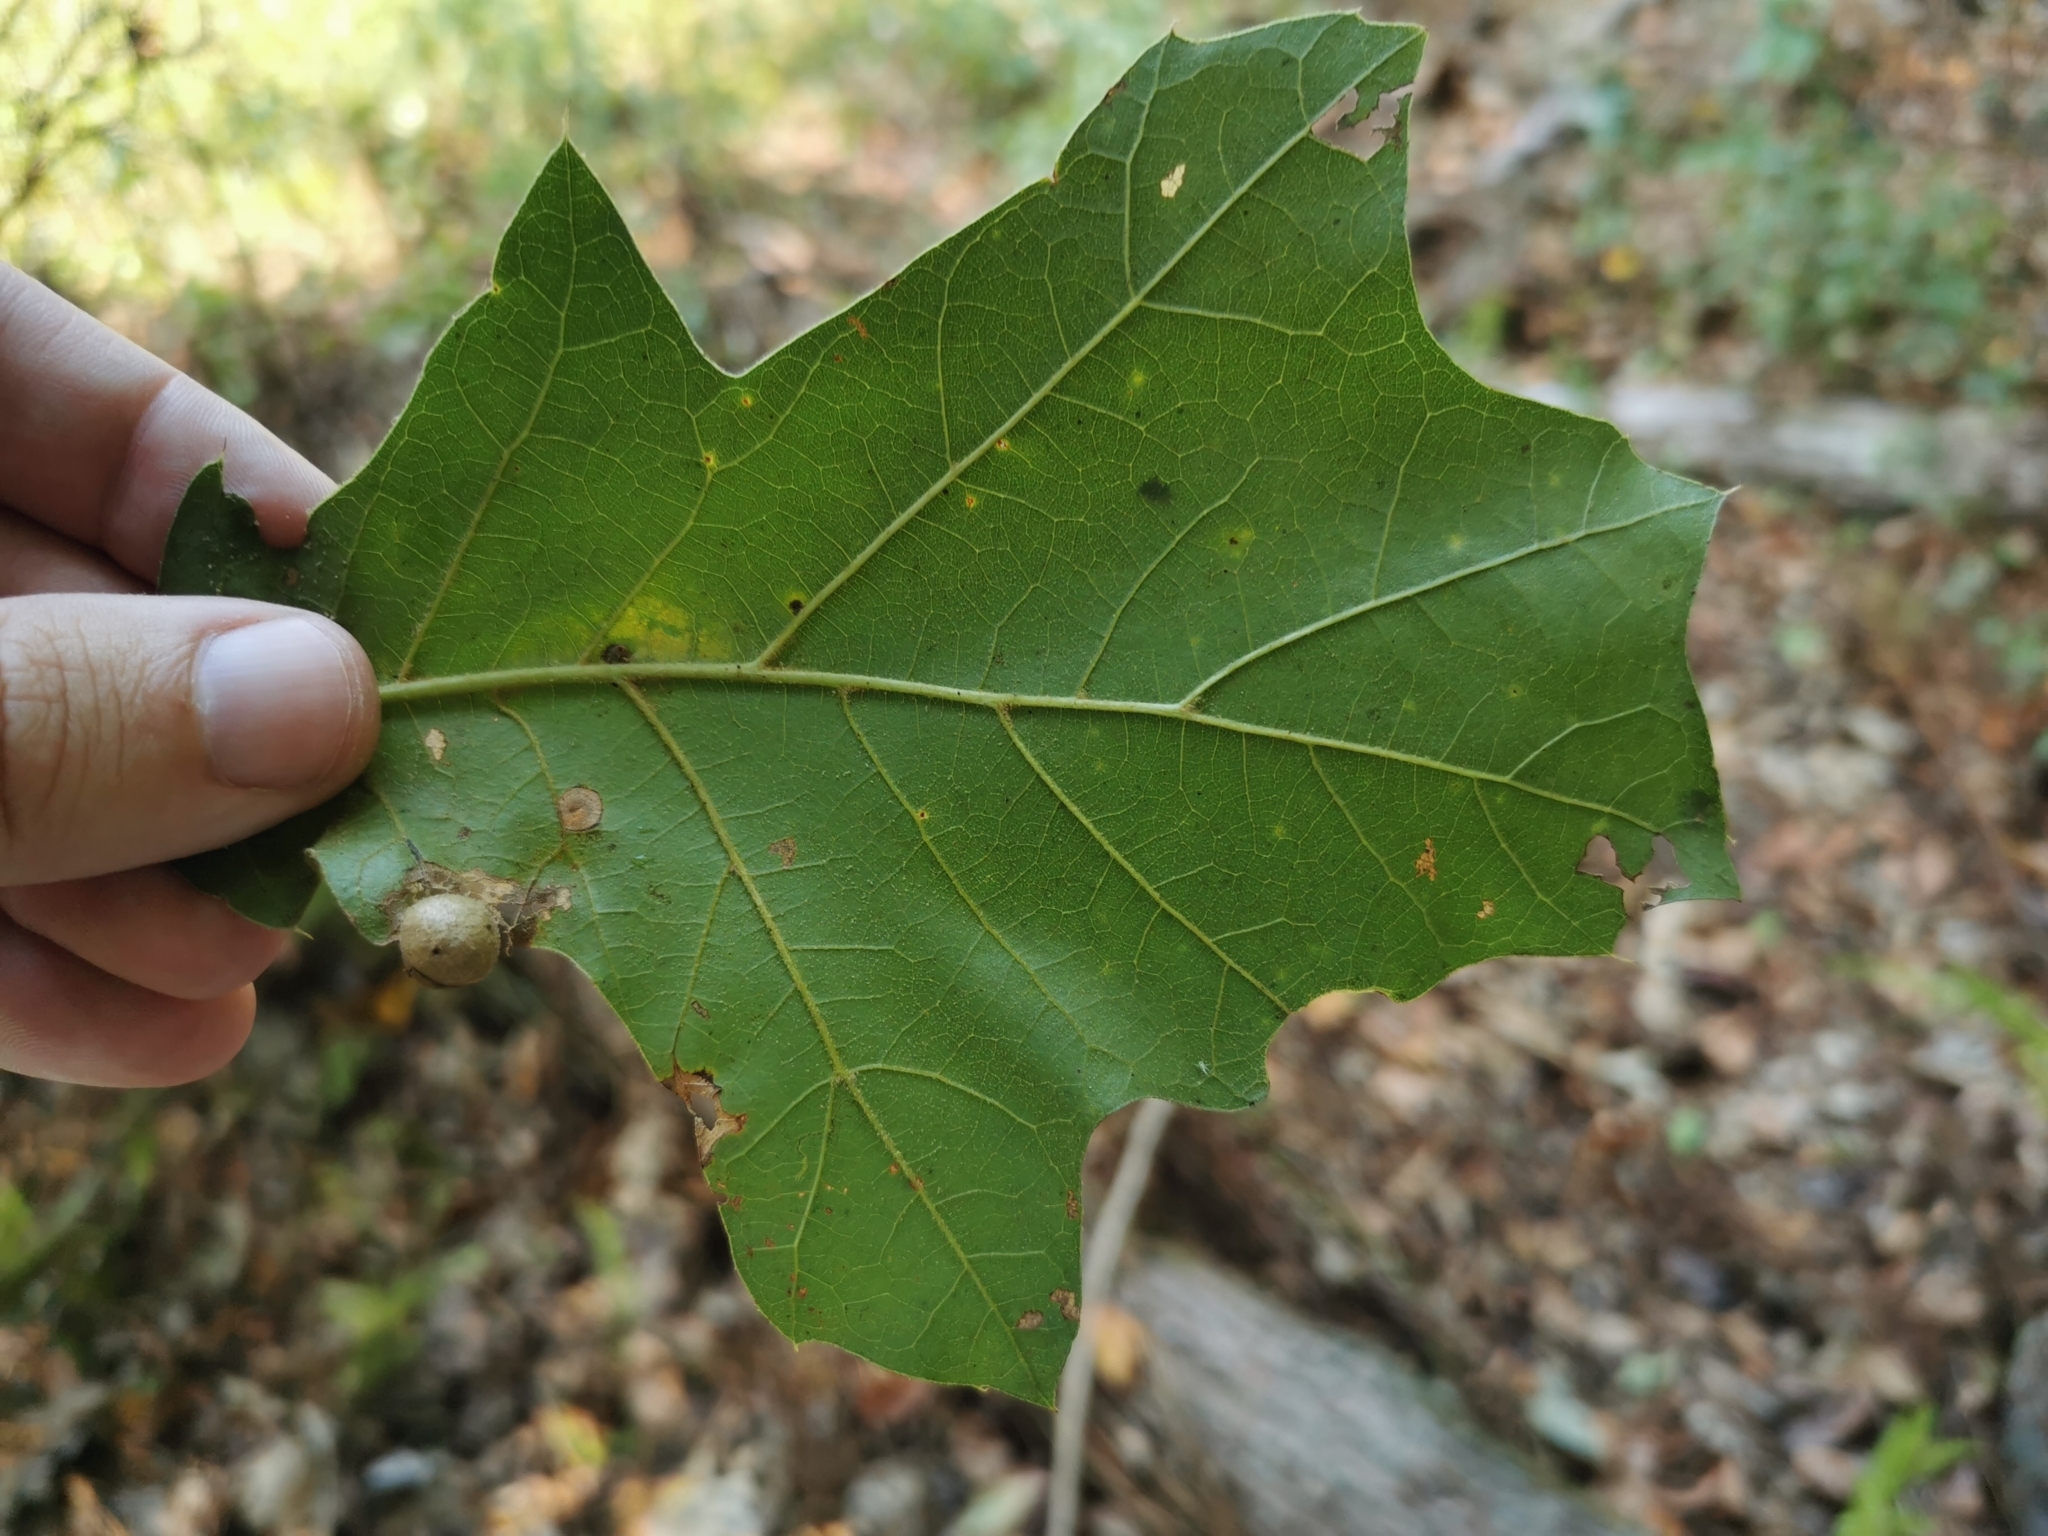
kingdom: Animalia
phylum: Arthropoda
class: Insecta
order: Hymenoptera
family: Cynipidae
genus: Amphibolips
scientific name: Amphibolips
